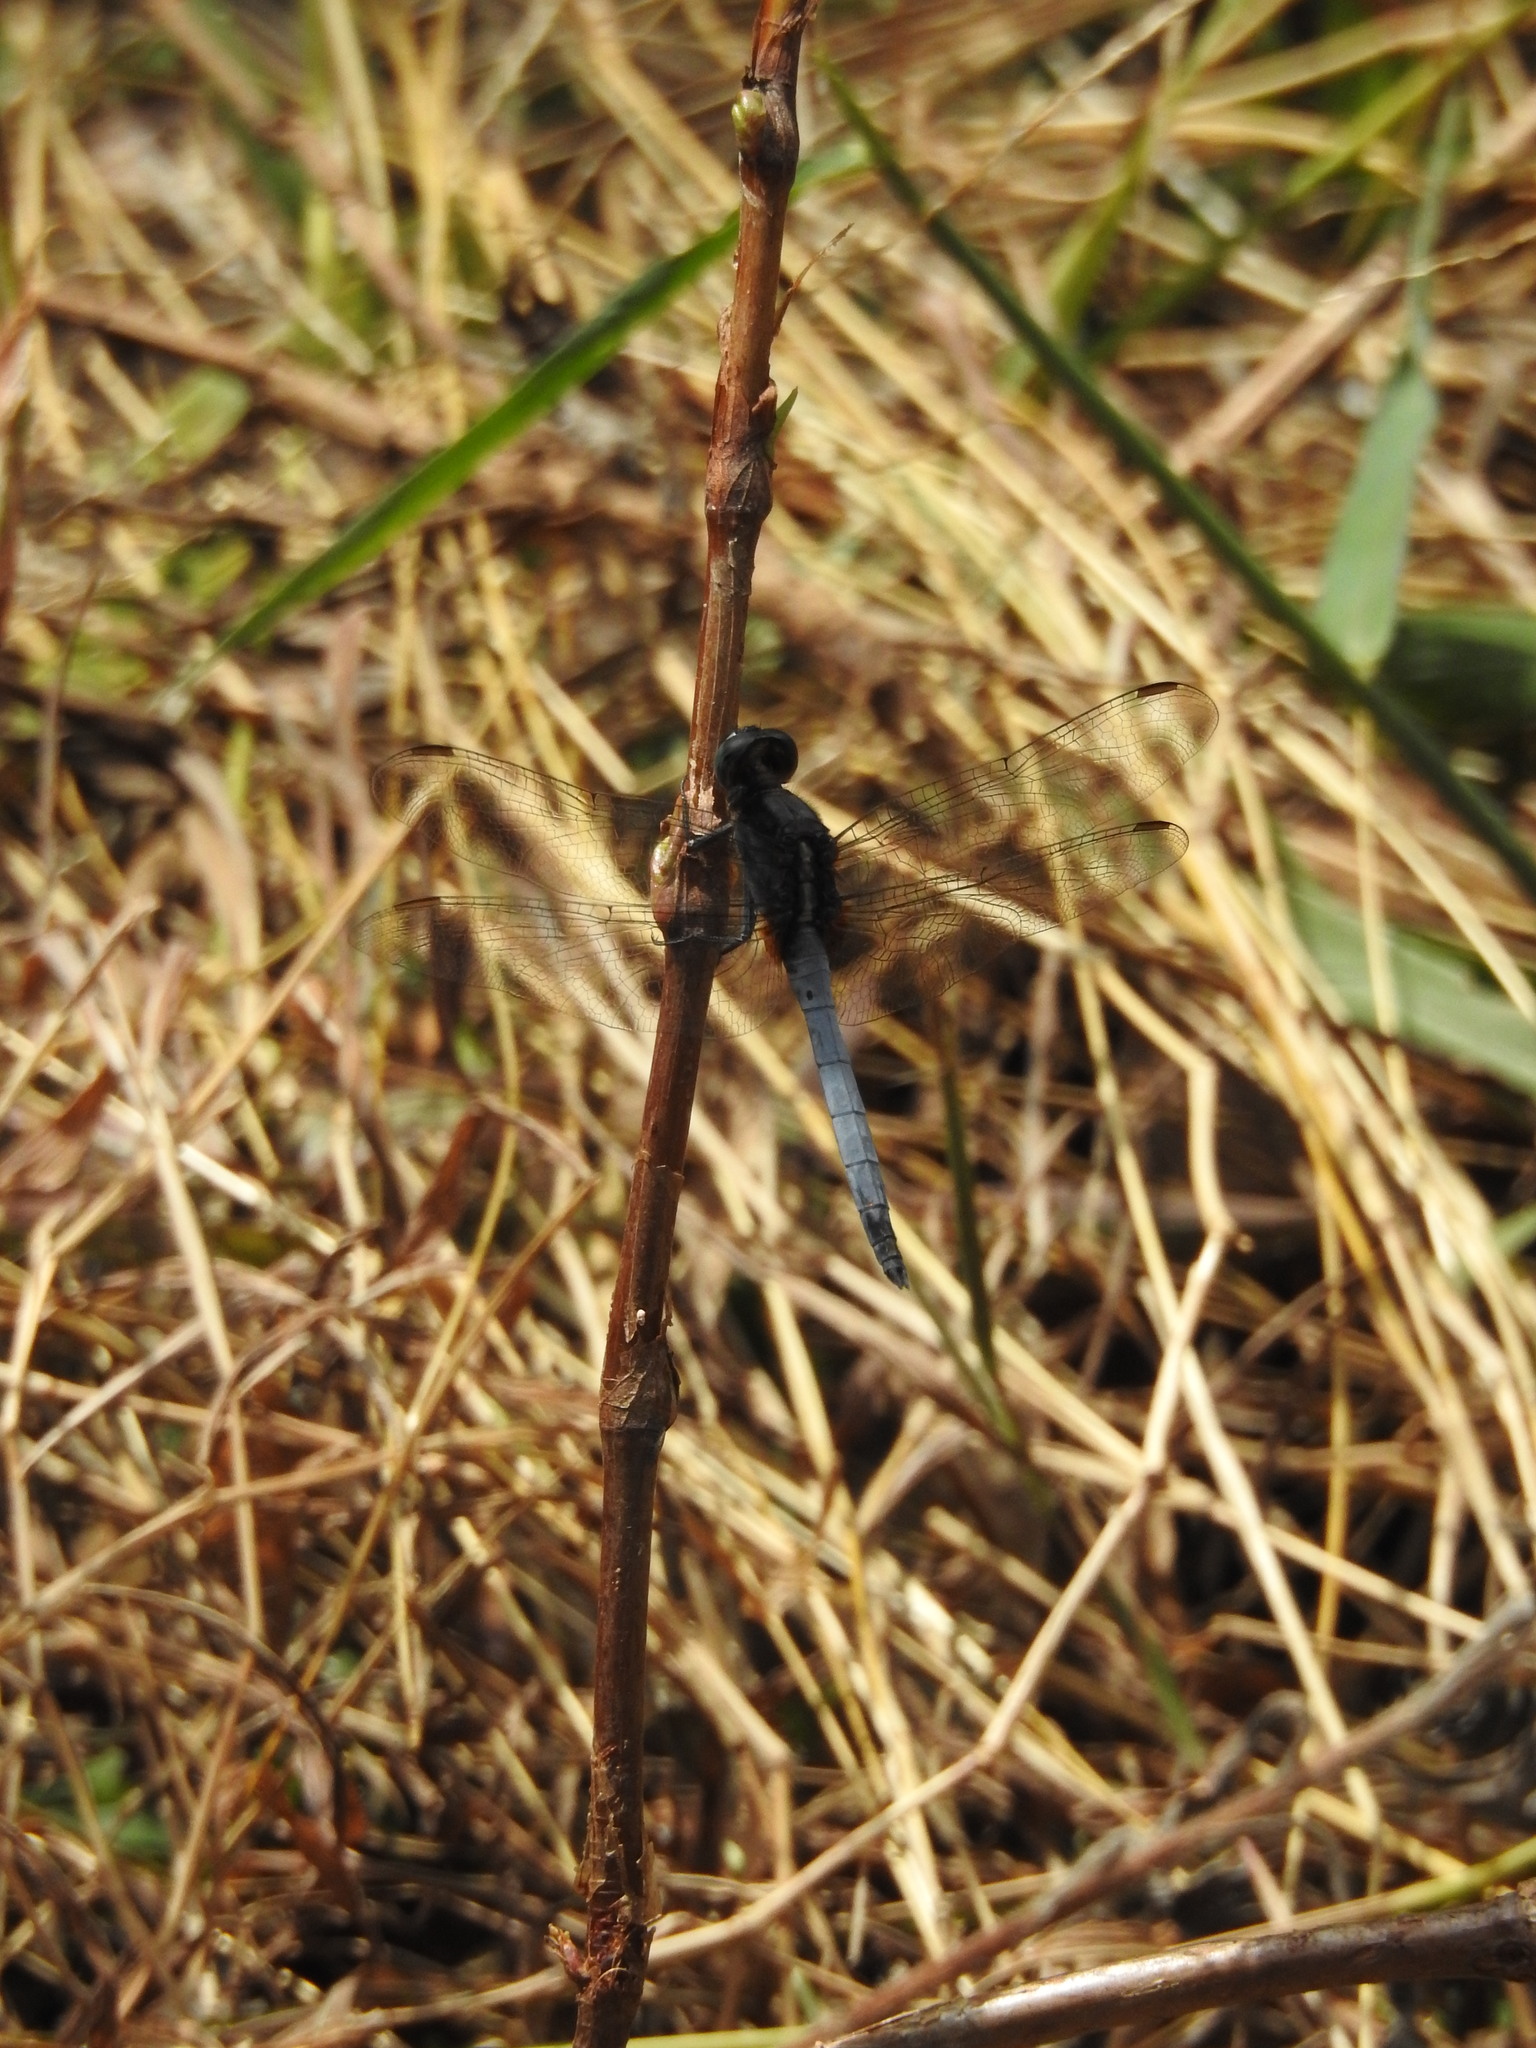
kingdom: Animalia
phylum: Arthropoda
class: Insecta
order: Odonata
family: Libellulidae
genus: Orthetrum
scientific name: Orthetrum glaucum
